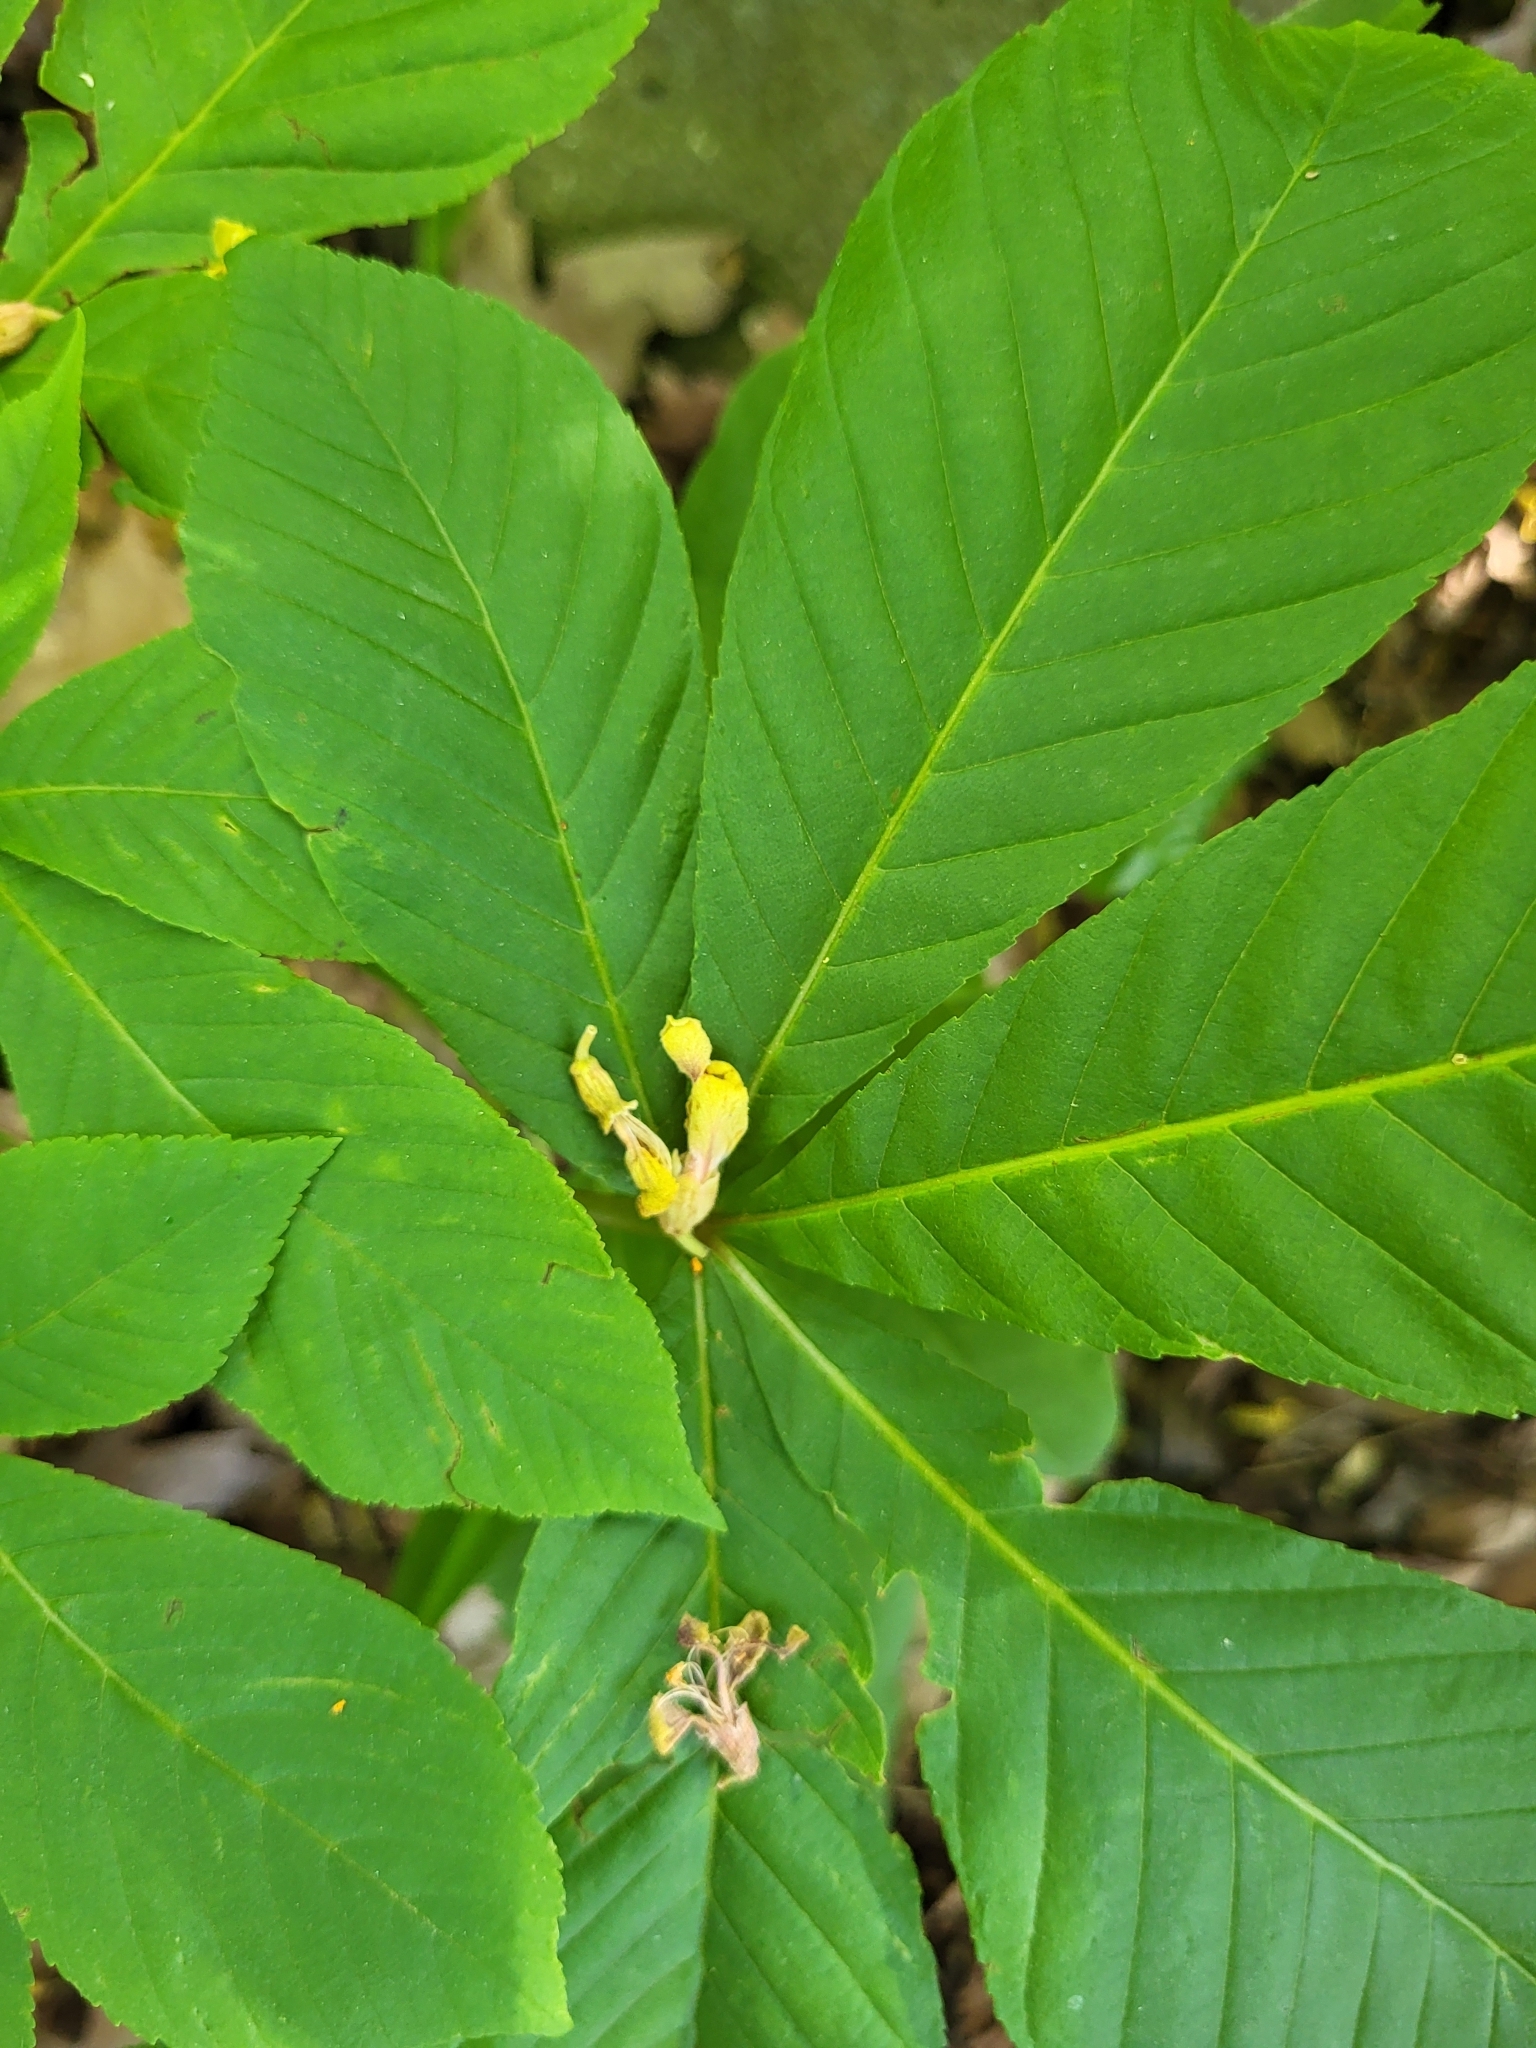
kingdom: Plantae
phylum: Tracheophyta
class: Magnoliopsida
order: Sapindales
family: Sapindaceae
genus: Aesculus
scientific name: Aesculus flava
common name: Yellow buckeye
